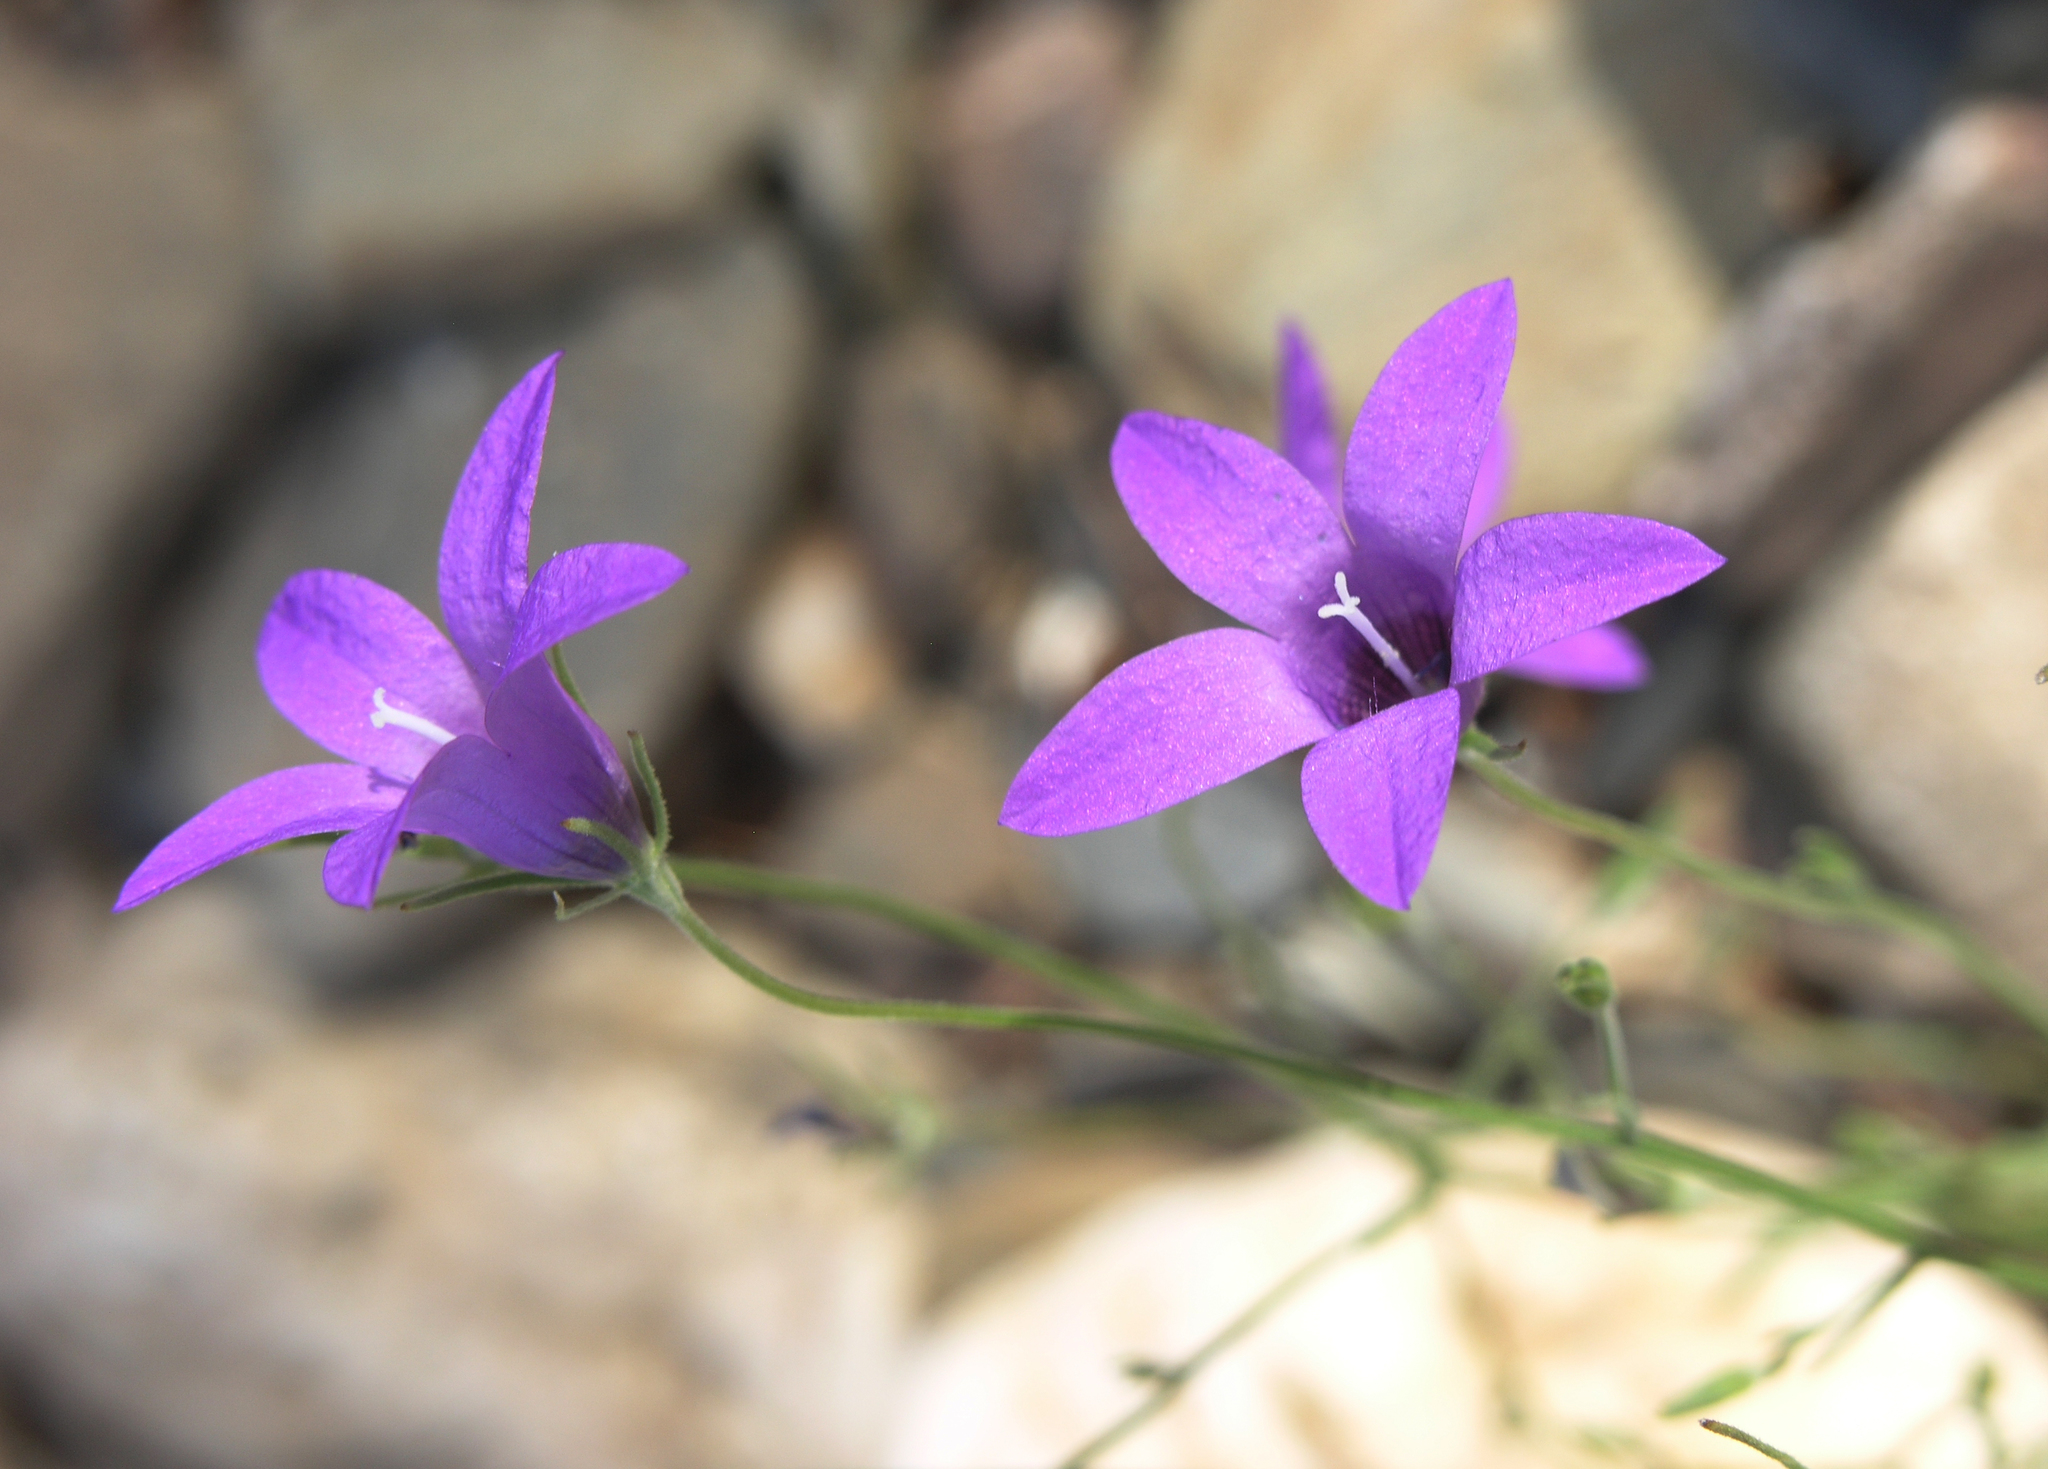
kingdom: Plantae
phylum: Tracheophyta
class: Magnoliopsida
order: Asterales
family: Campanulaceae
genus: Campanula
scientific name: Campanula lusitanica
